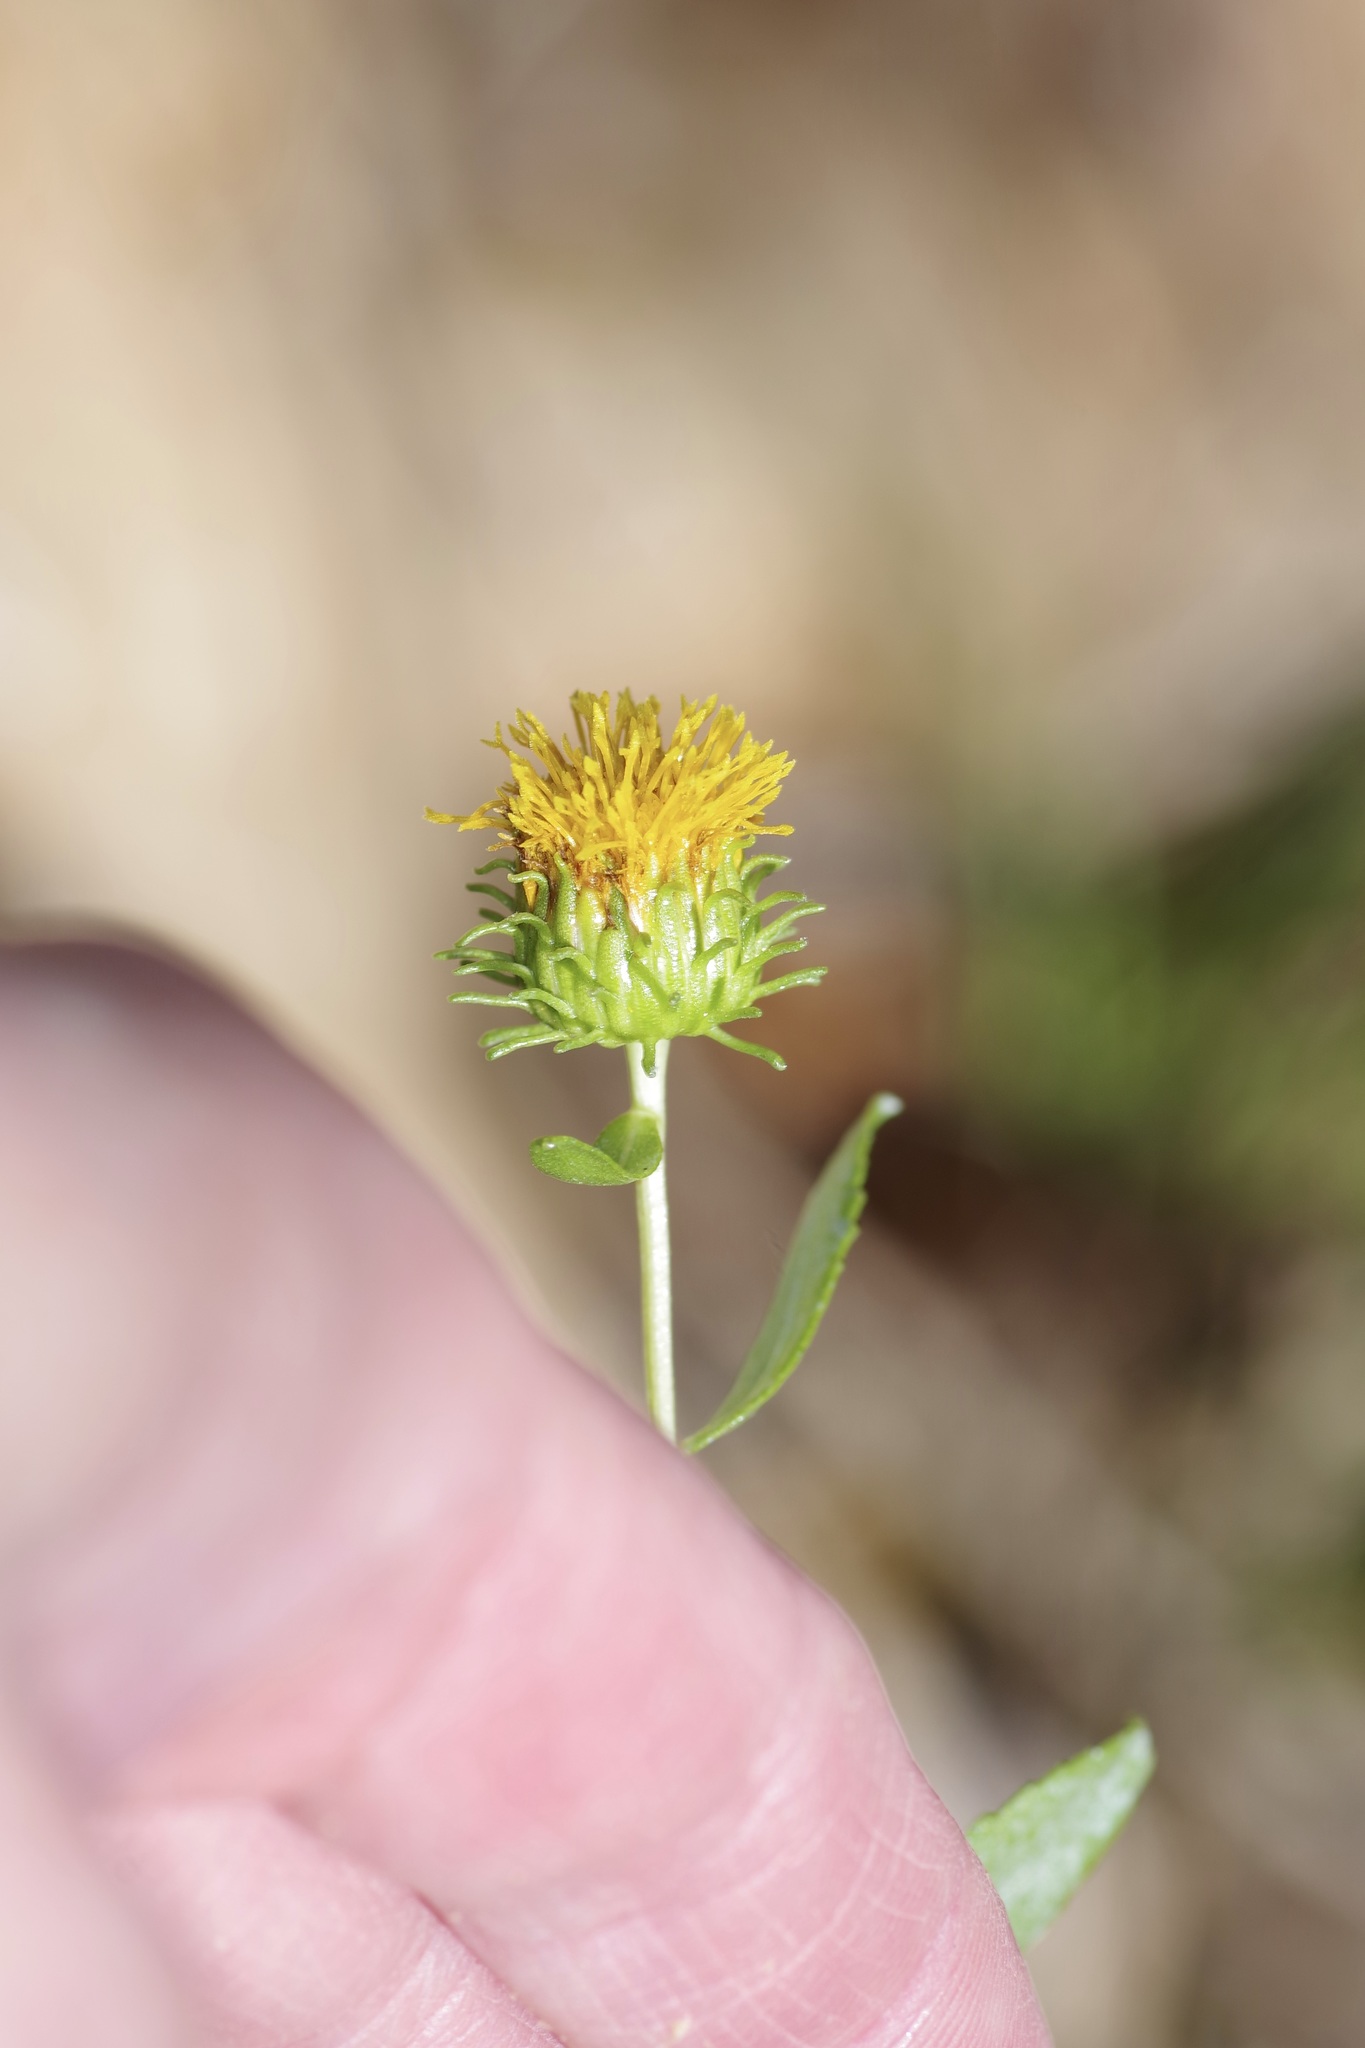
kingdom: Plantae
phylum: Tracheophyta
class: Magnoliopsida
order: Asterales
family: Asteraceae
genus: Grindelia
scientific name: Grindelia nuda
